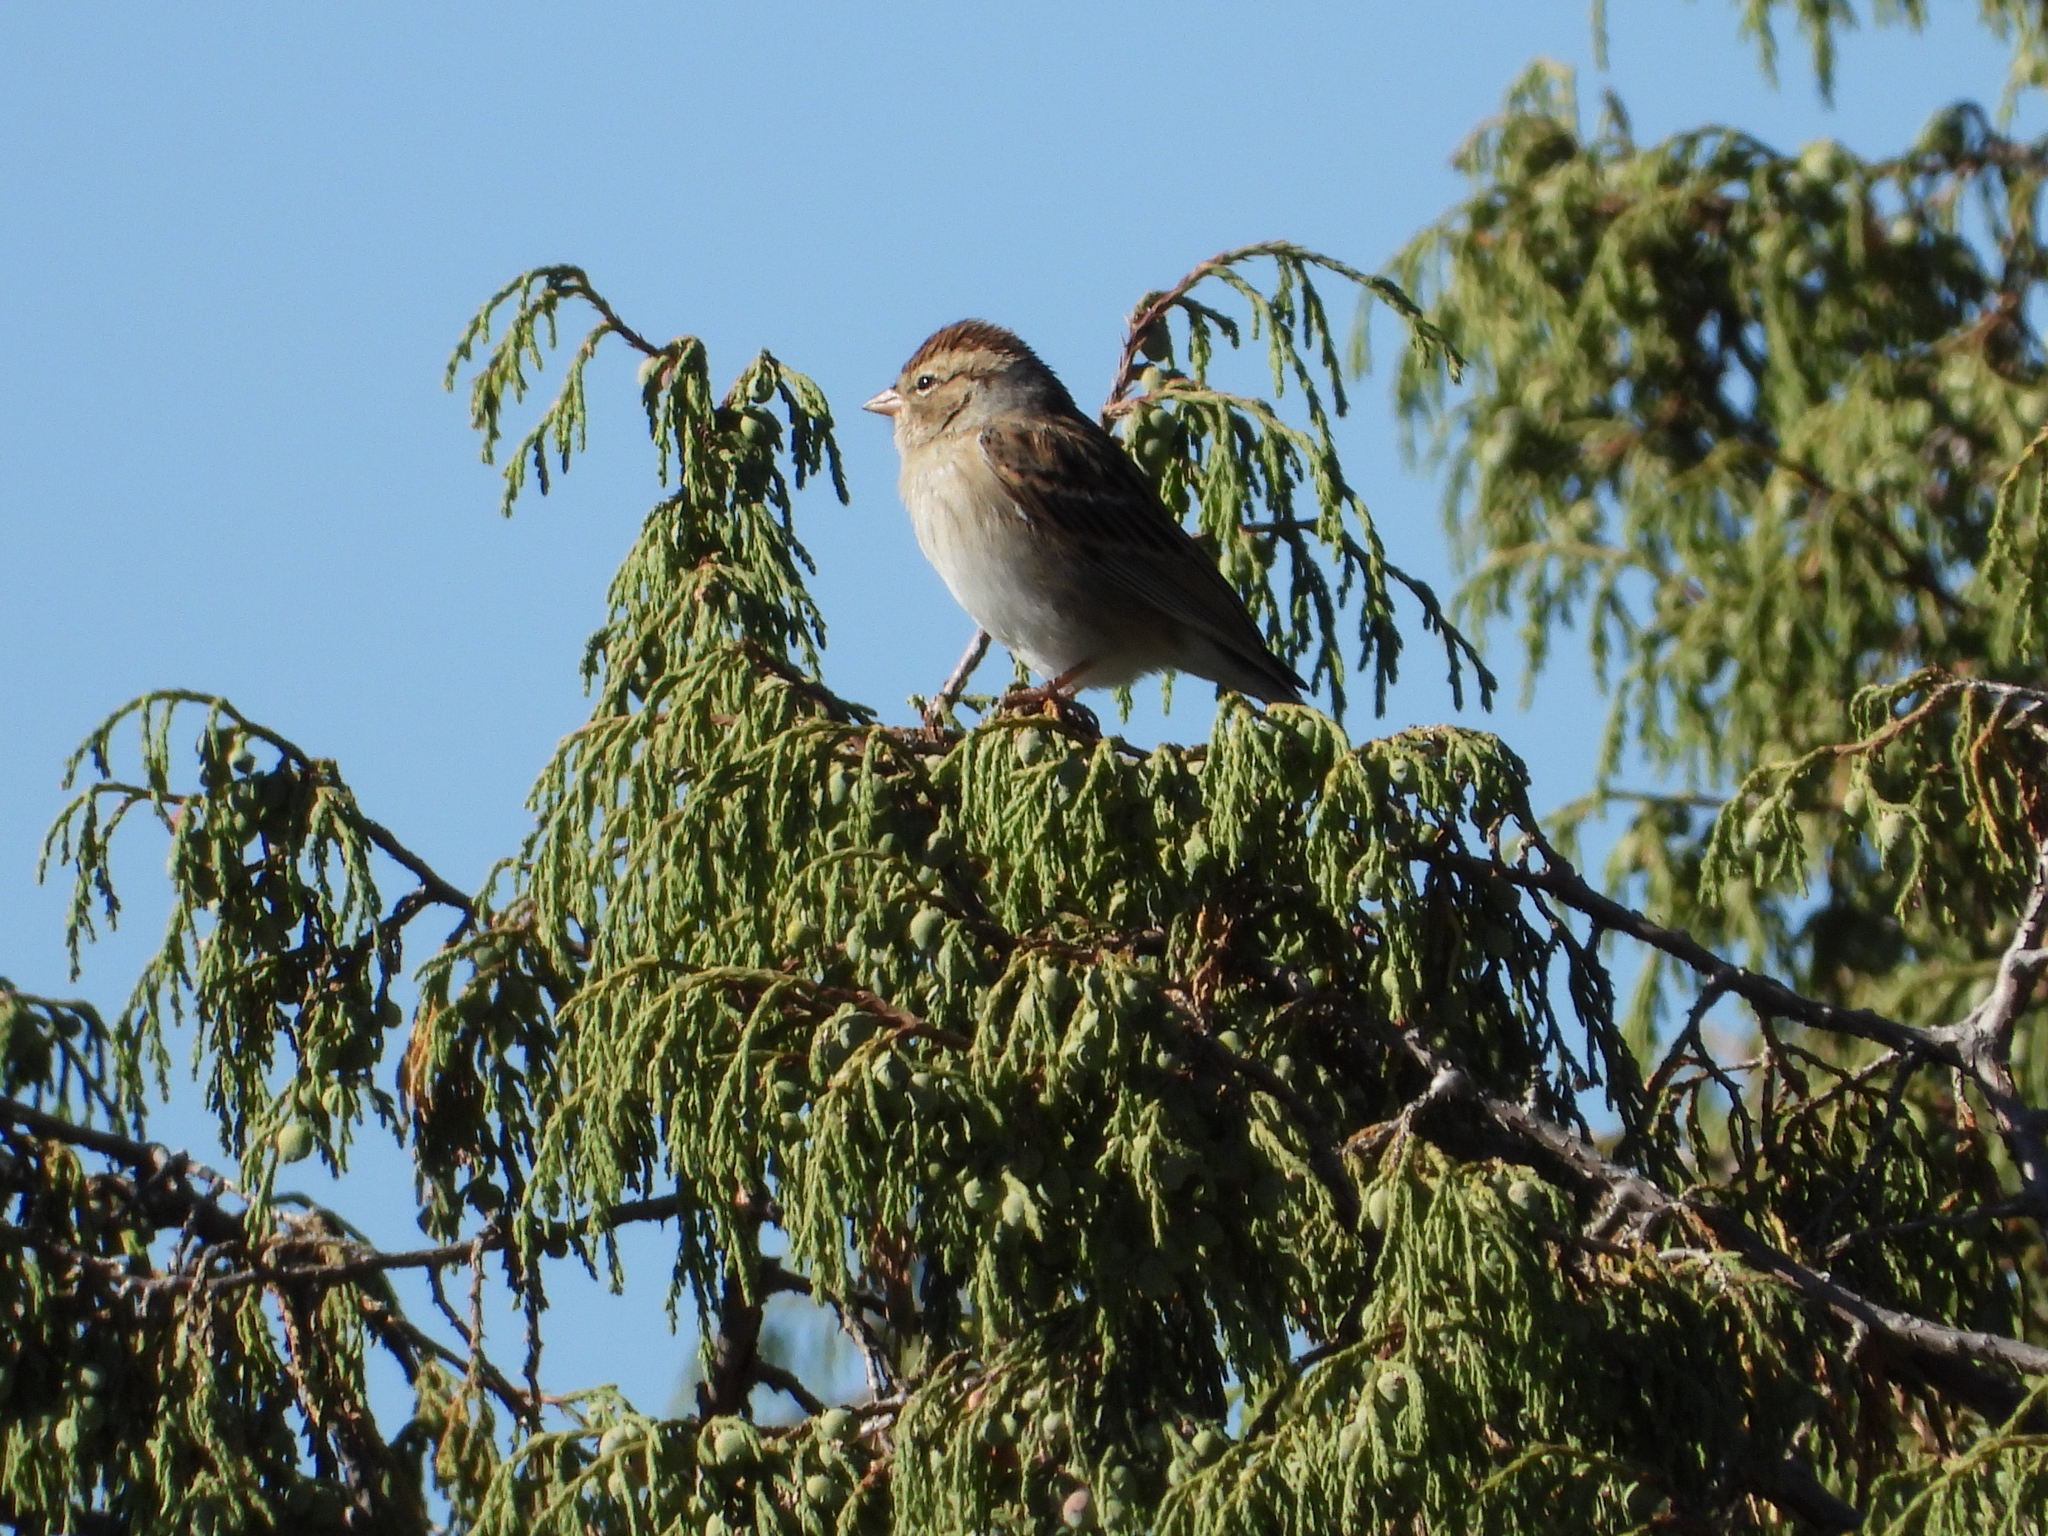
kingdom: Animalia
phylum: Chordata
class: Aves
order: Passeriformes
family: Passerellidae
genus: Spizella
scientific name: Spizella passerina
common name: Chipping sparrow
